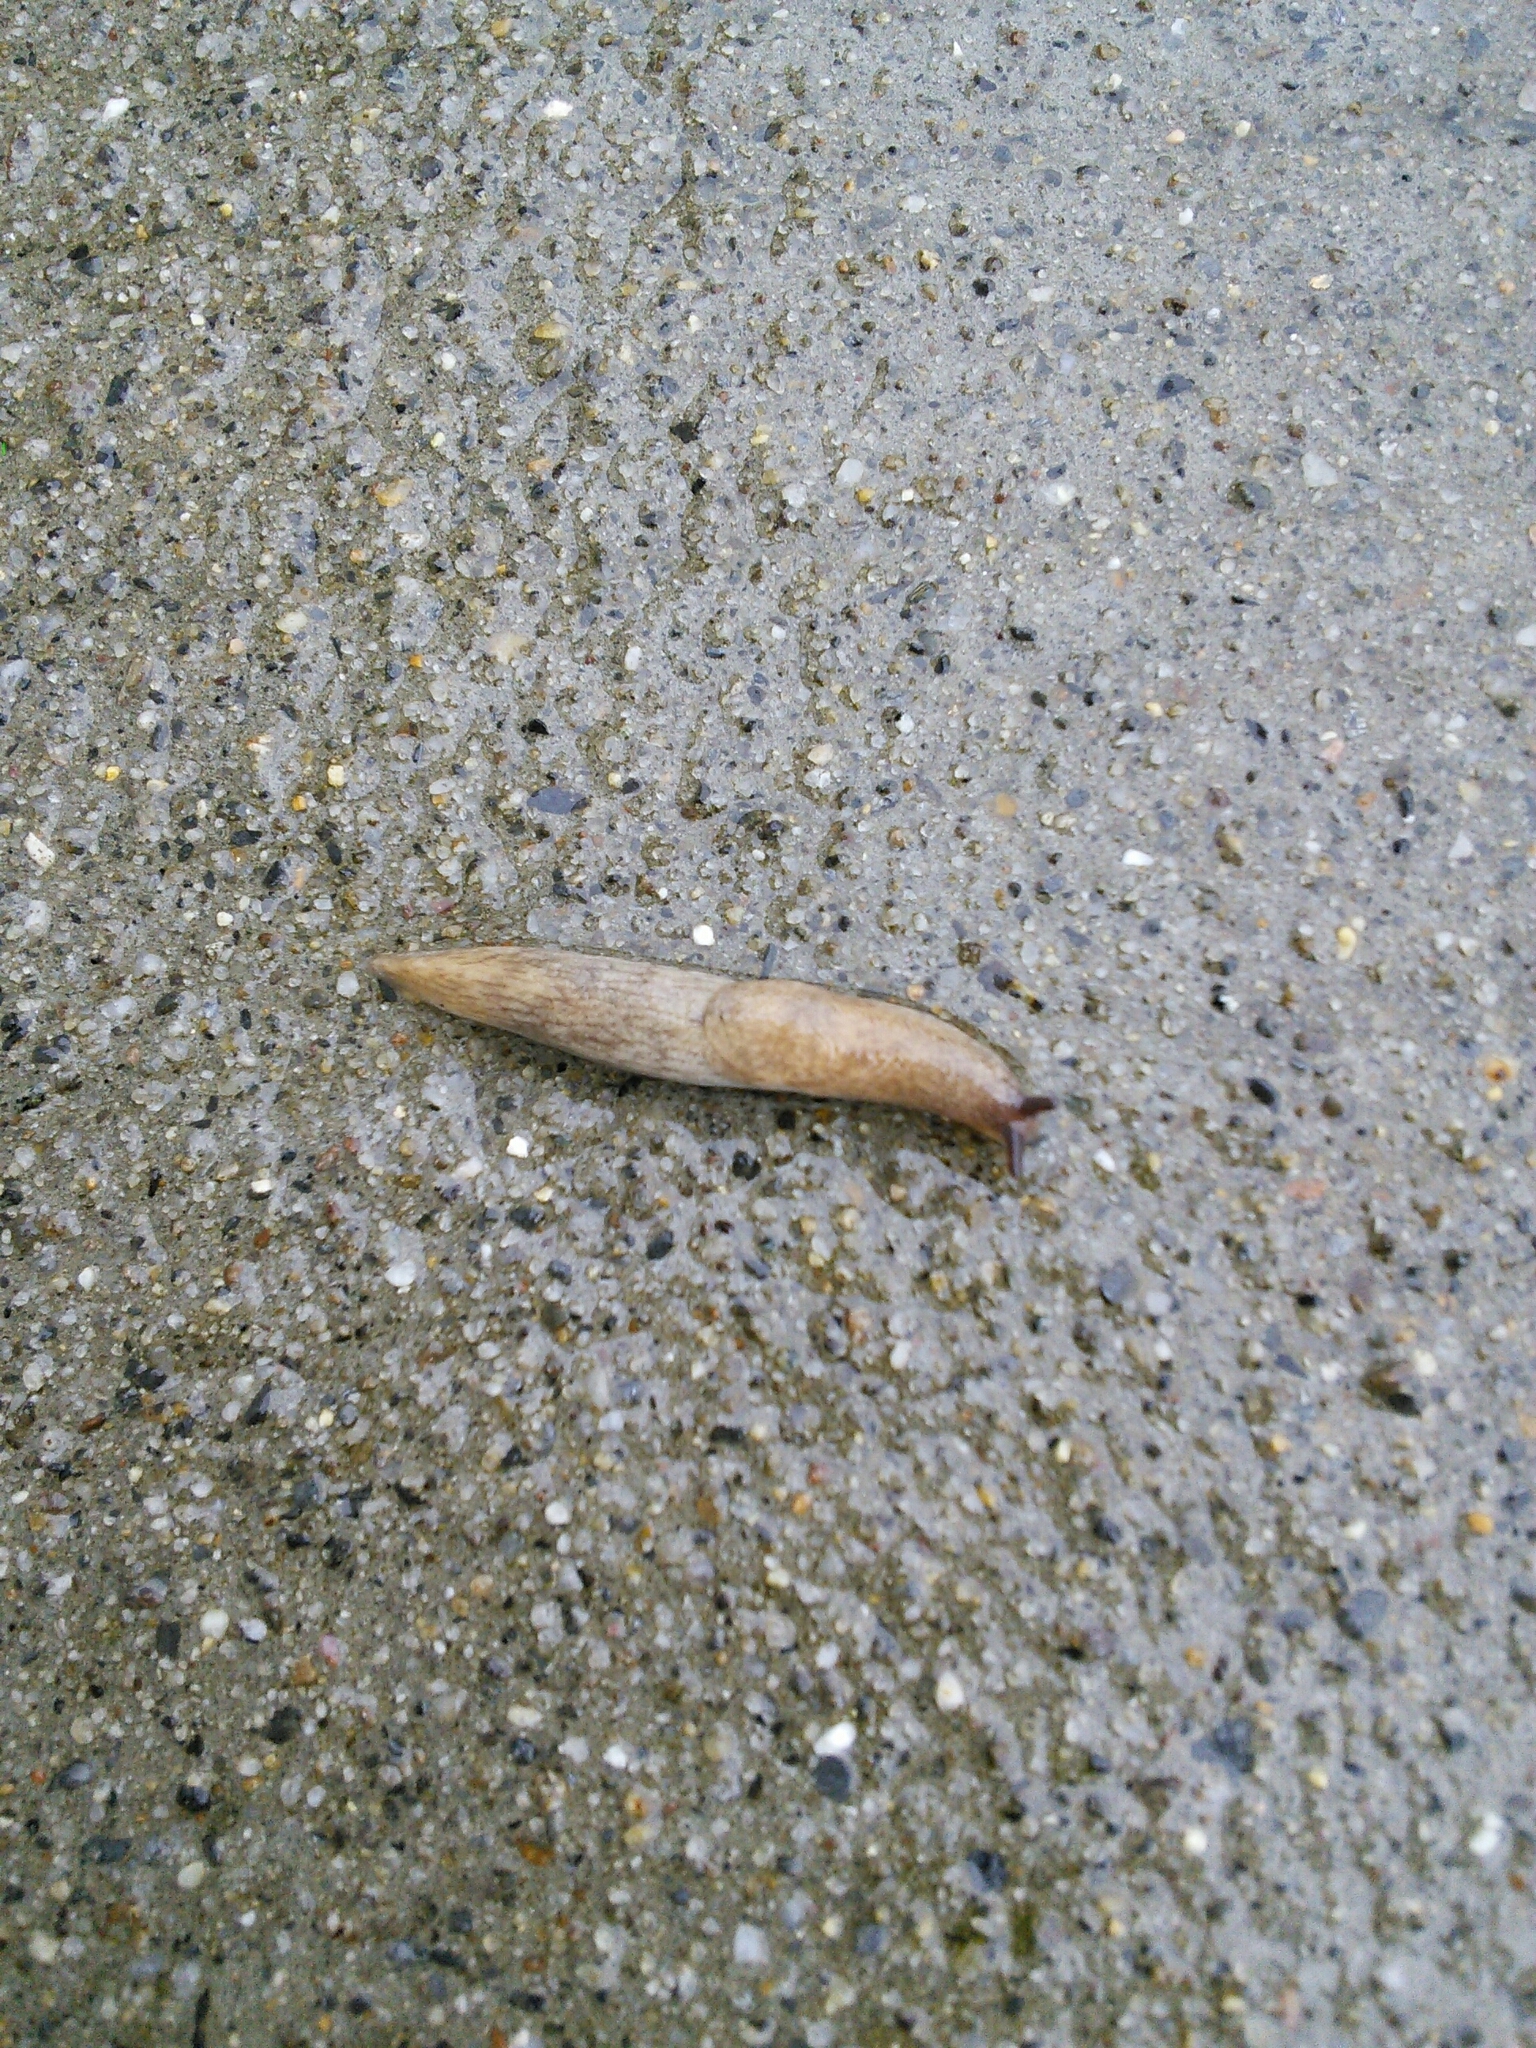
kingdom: Animalia
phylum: Mollusca
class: Gastropoda
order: Stylommatophora
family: Agriolimacidae
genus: Deroceras
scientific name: Deroceras reticulatum
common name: Gray field slug
